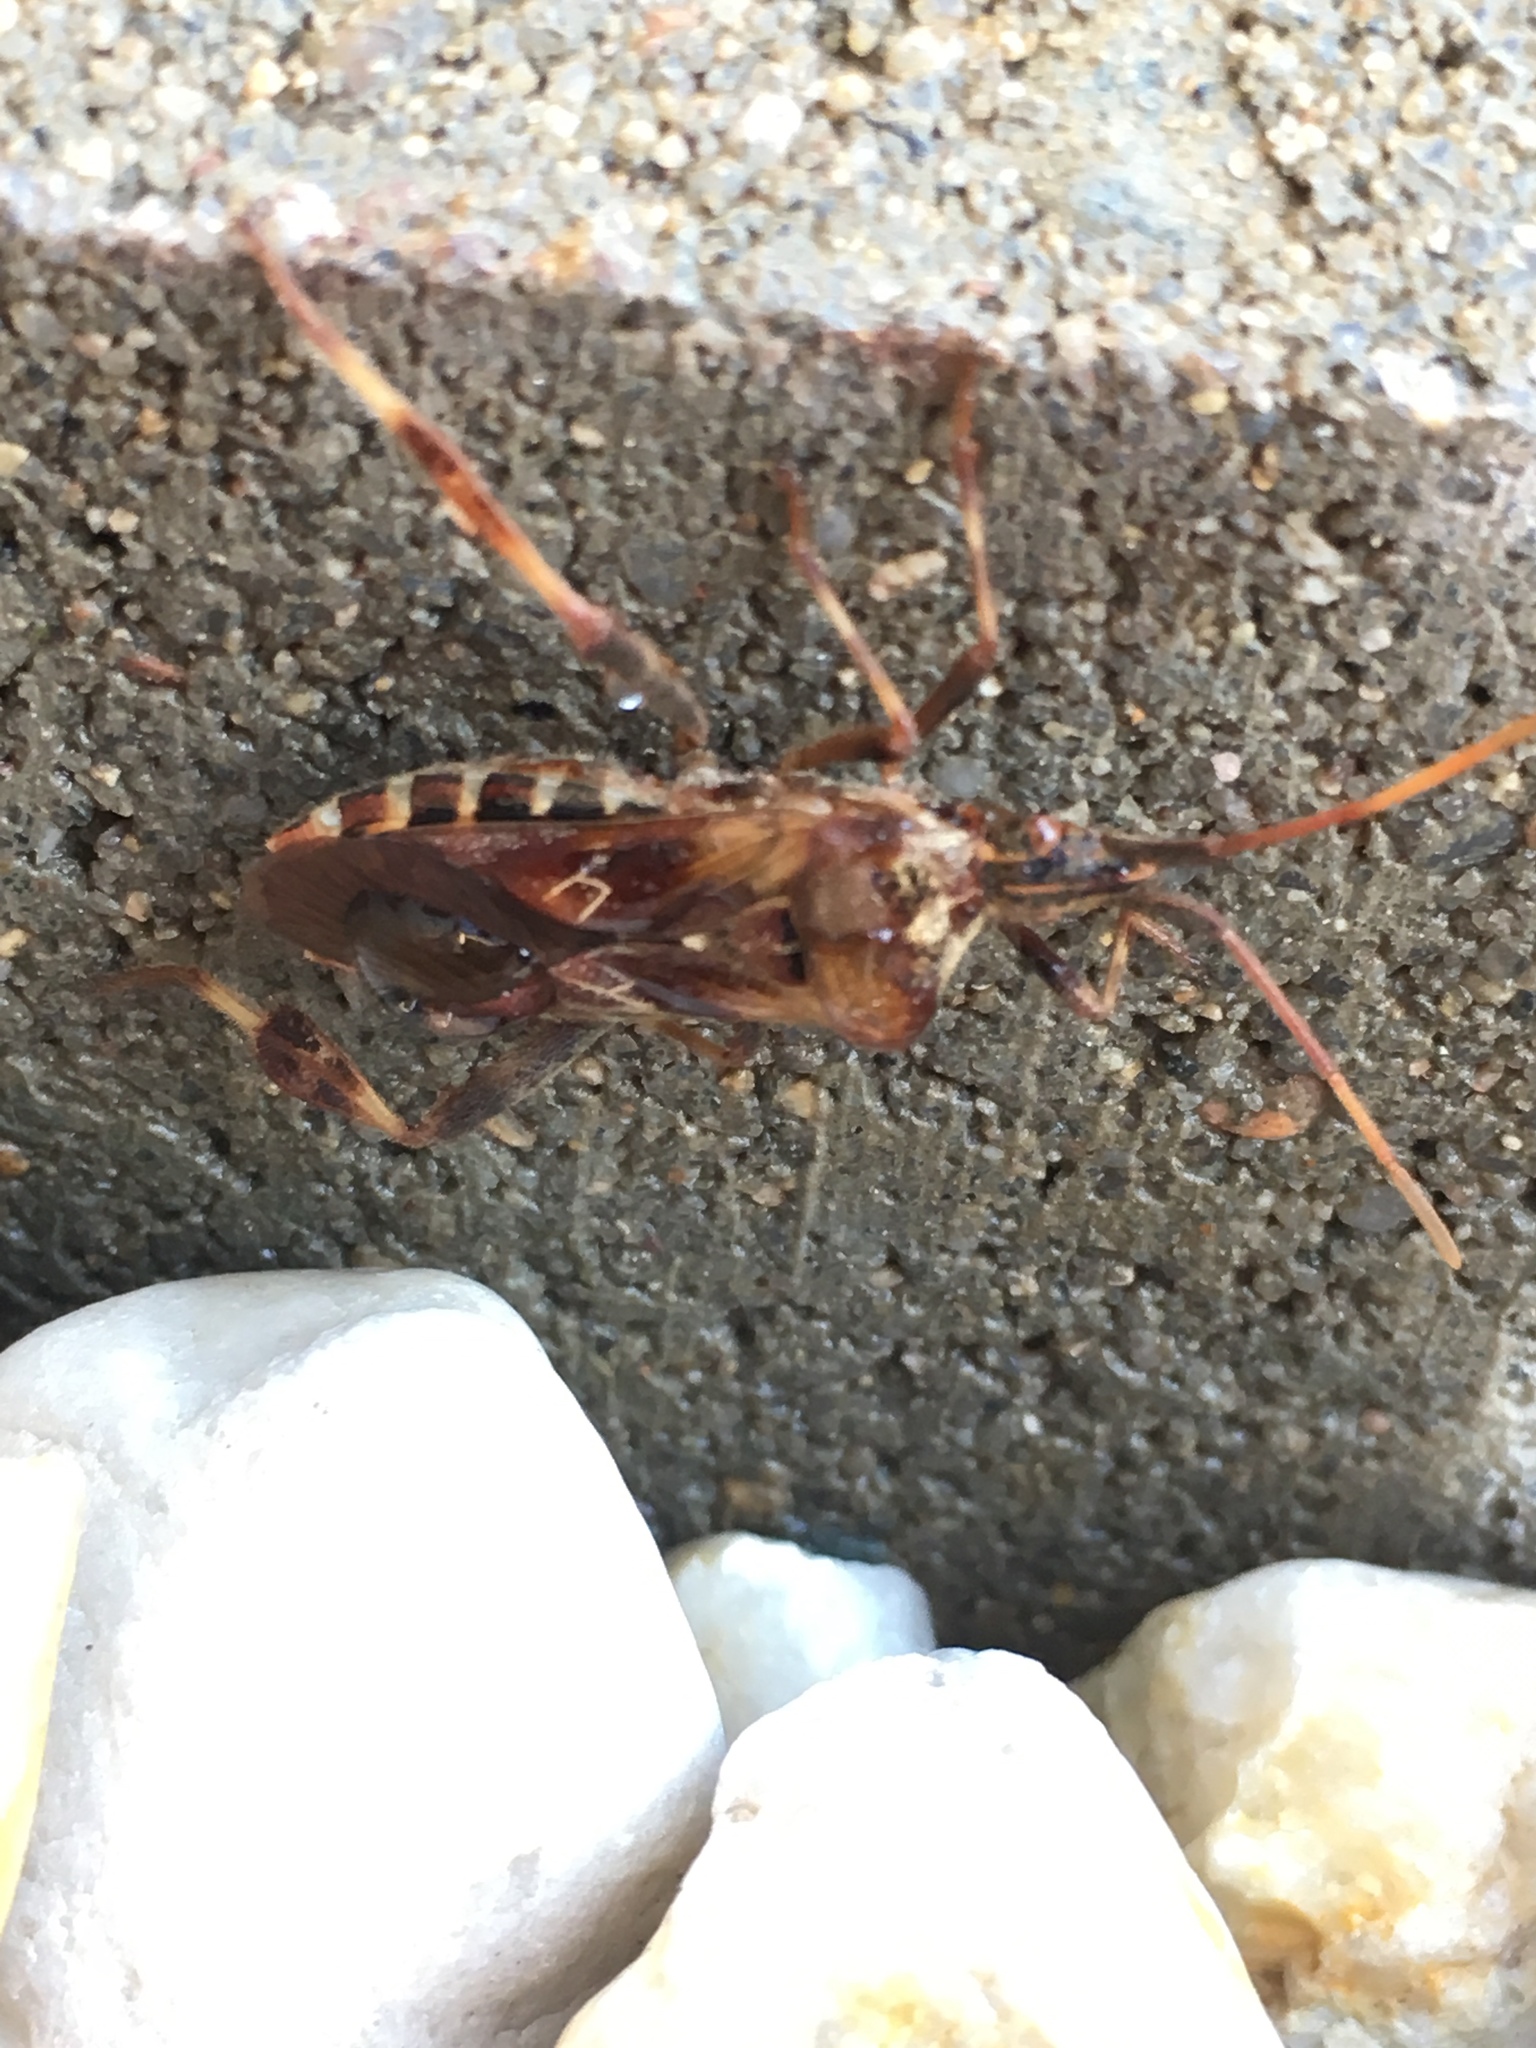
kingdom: Animalia
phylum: Arthropoda
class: Insecta
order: Hemiptera
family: Coreidae
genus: Leptoglossus
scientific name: Leptoglossus occidentalis
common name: Western conifer-seed bug
